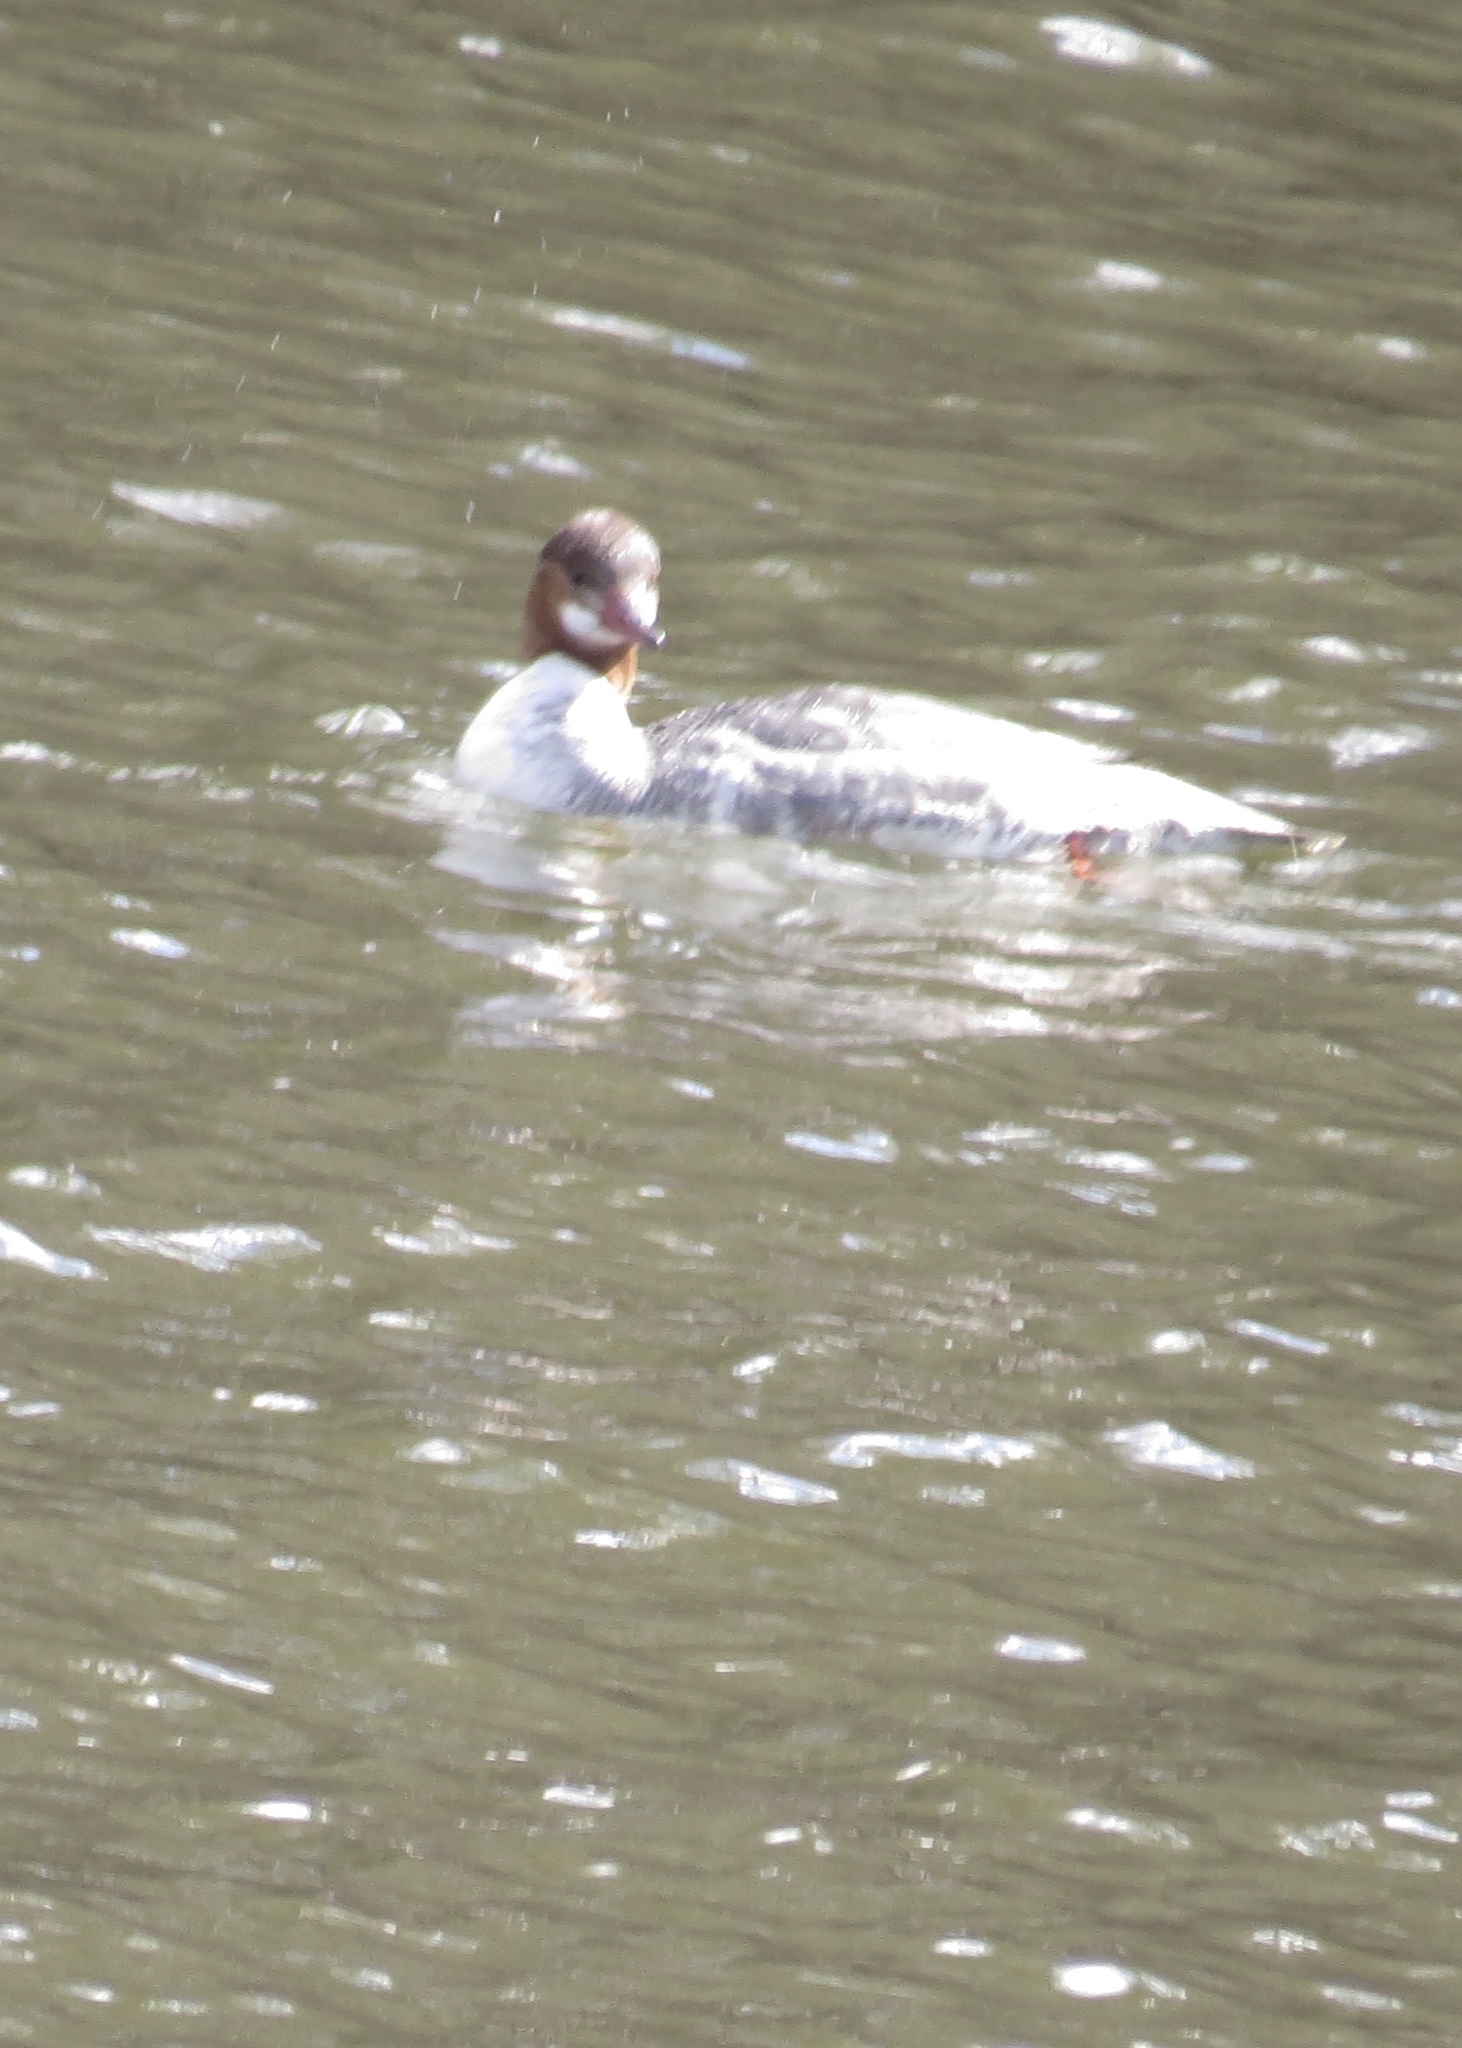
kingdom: Animalia
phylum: Chordata
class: Aves
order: Anseriformes
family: Anatidae
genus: Mergus
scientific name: Mergus merganser
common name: Common merganser
